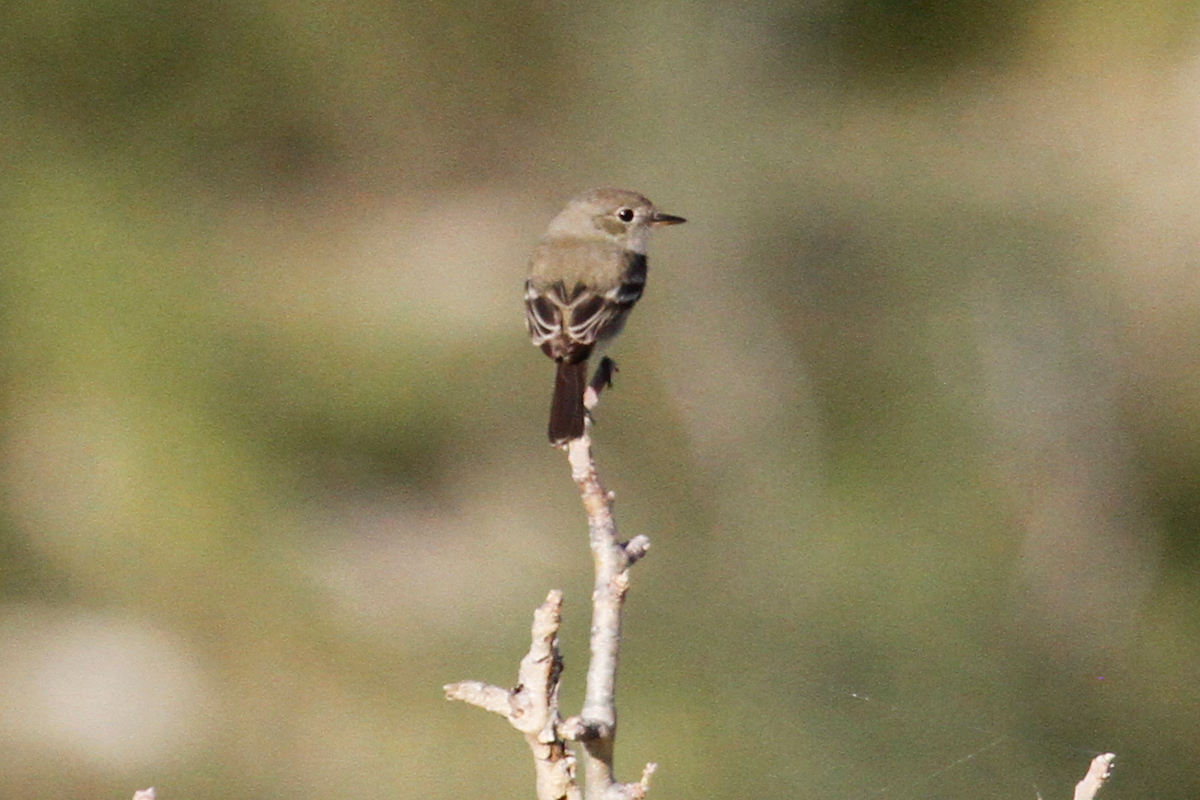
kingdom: Animalia
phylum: Chordata
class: Aves
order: Passeriformes
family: Tyrannidae
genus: Empidonax
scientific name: Empidonax wrightii
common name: Gray flycatcher
